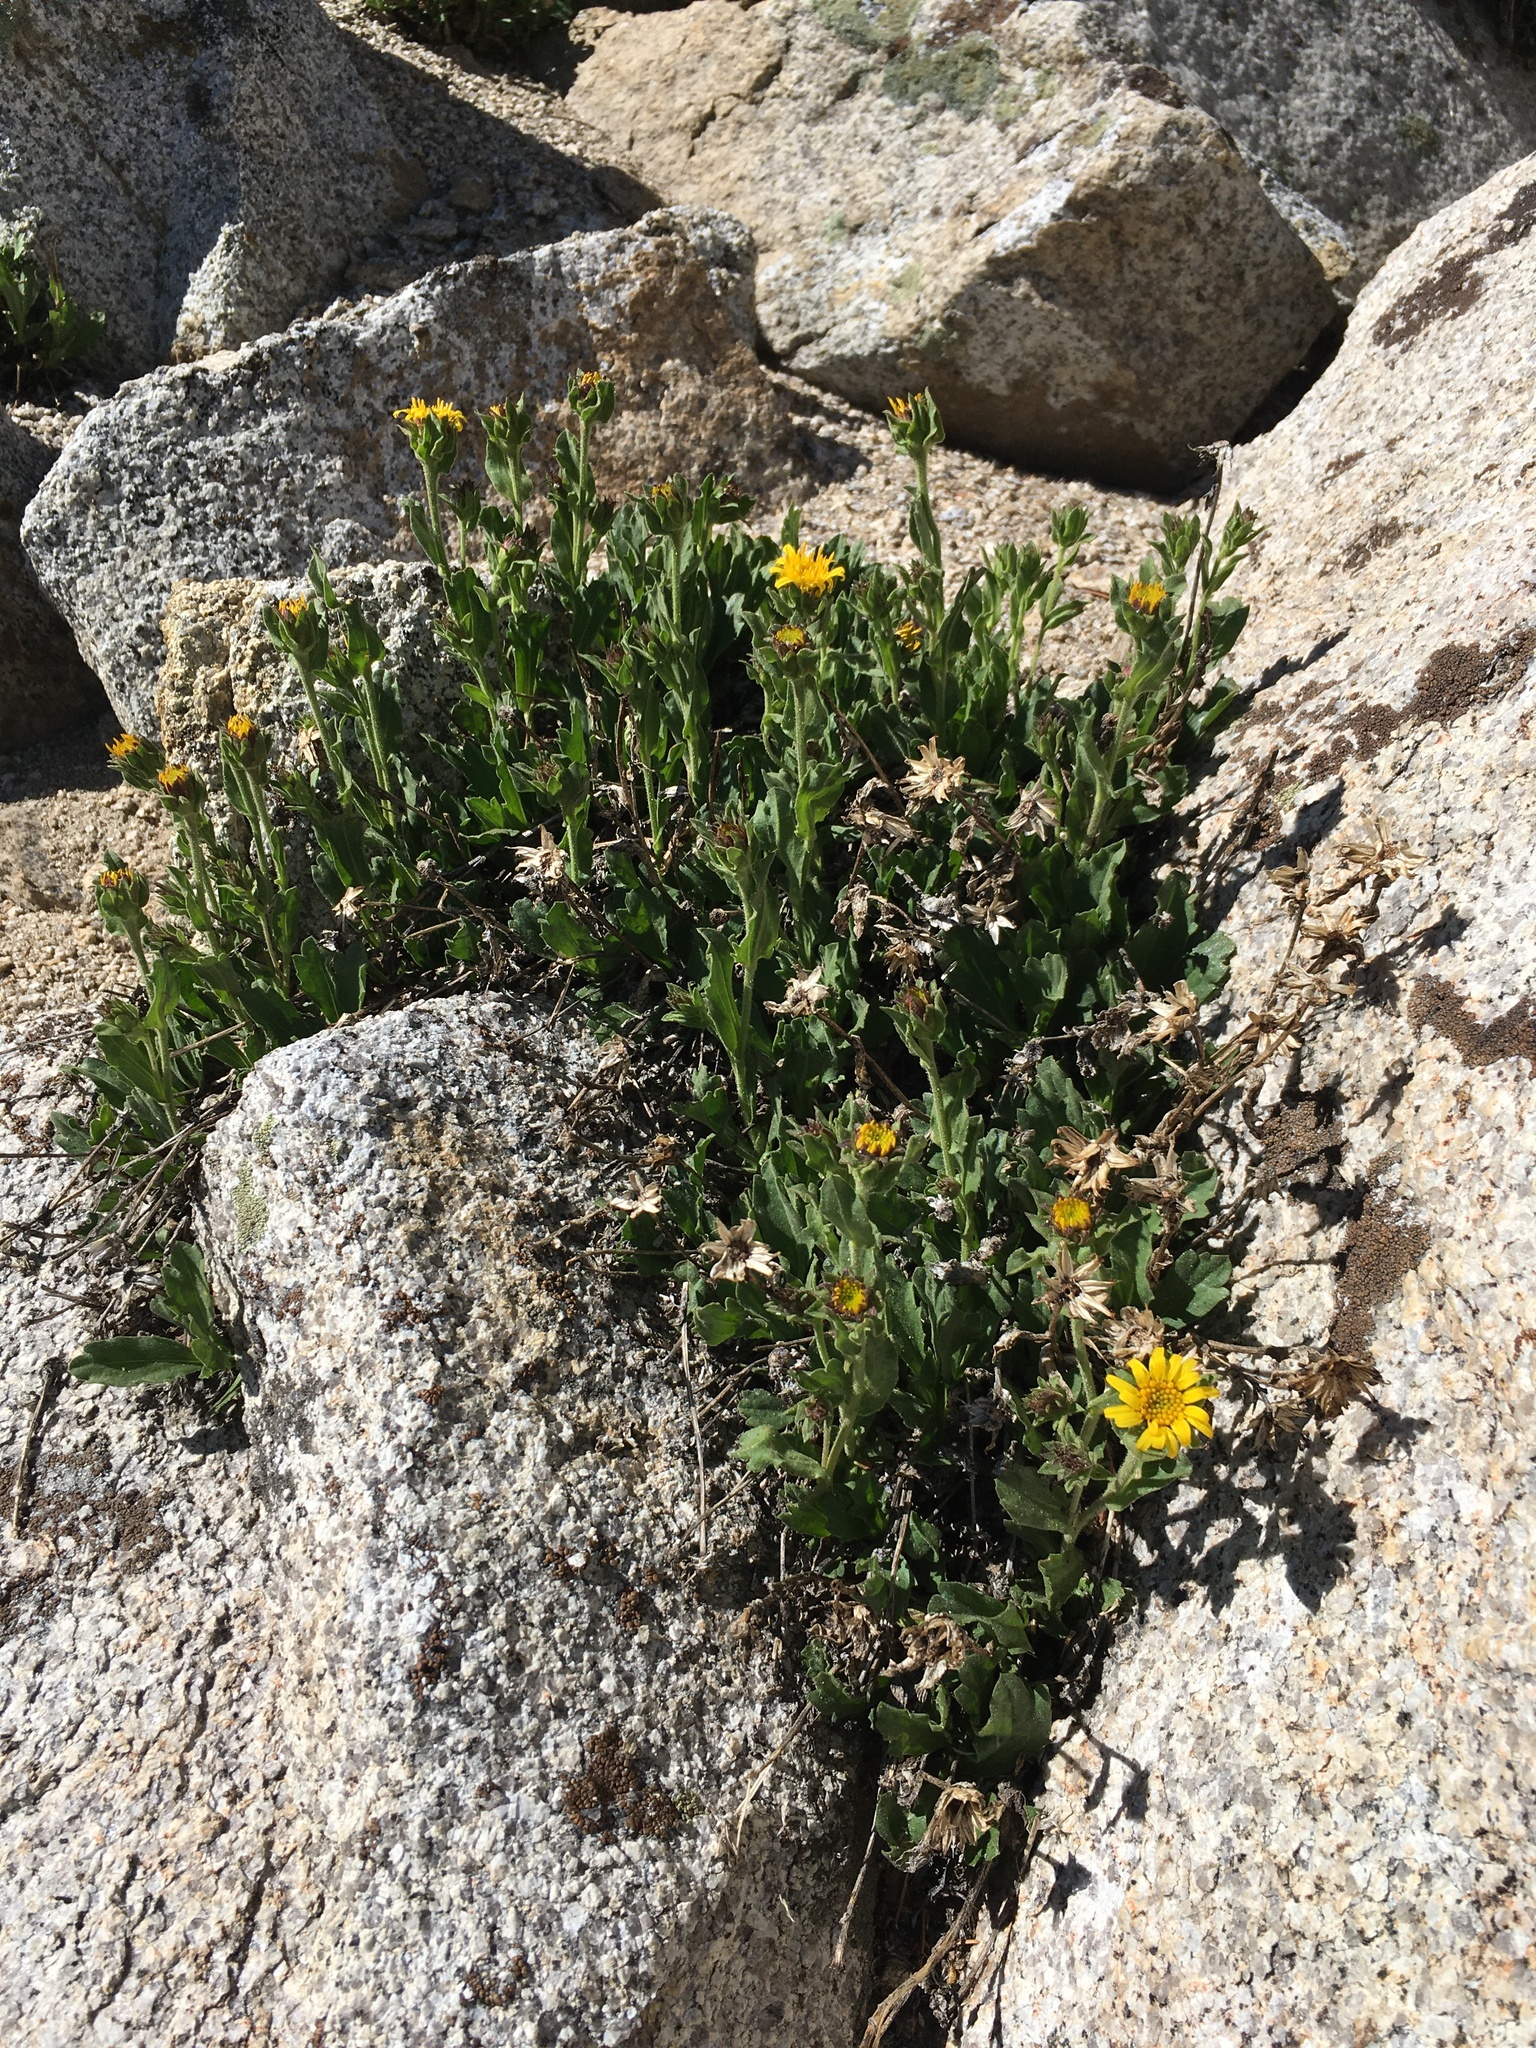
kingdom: Plantae
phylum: Tracheophyta
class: Magnoliopsida
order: Asterales
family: Asteraceae
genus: Toiyabea
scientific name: Toiyabea peirsonii
